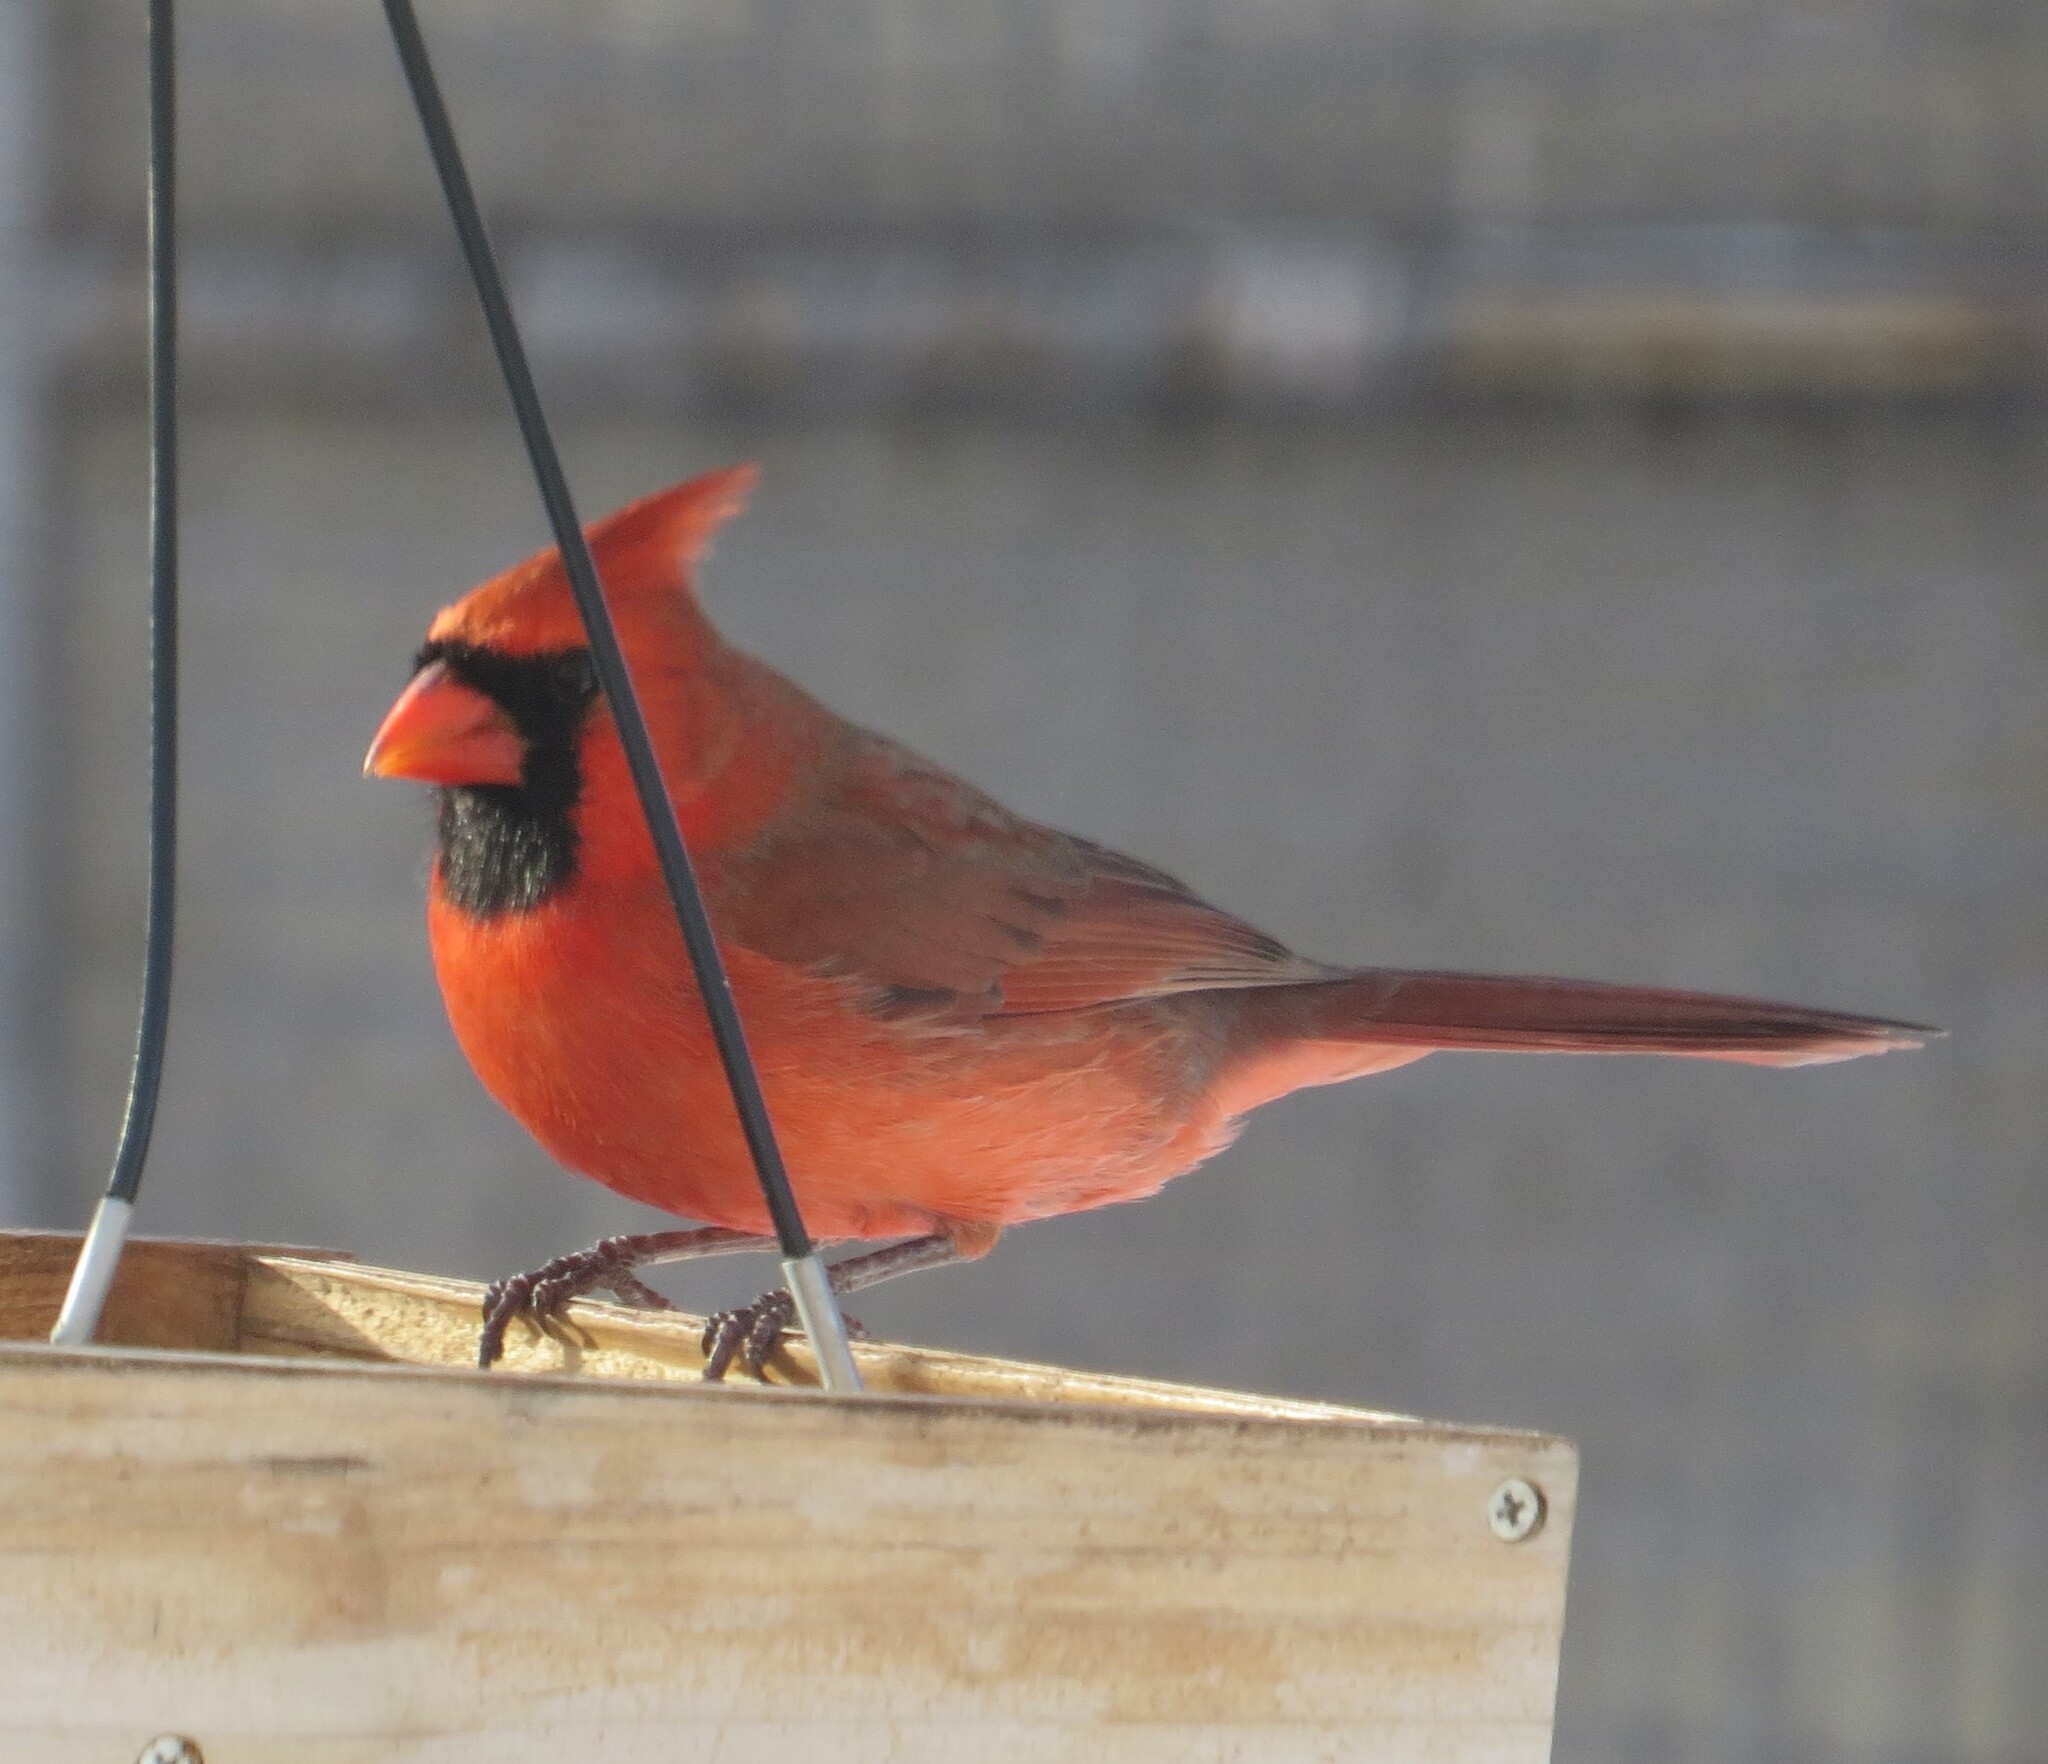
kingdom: Animalia
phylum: Chordata
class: Aves
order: Passeriformes
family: Cardinalidae
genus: Cardinalis
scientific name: Cardinalis cardinalis
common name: Northern cardinal
